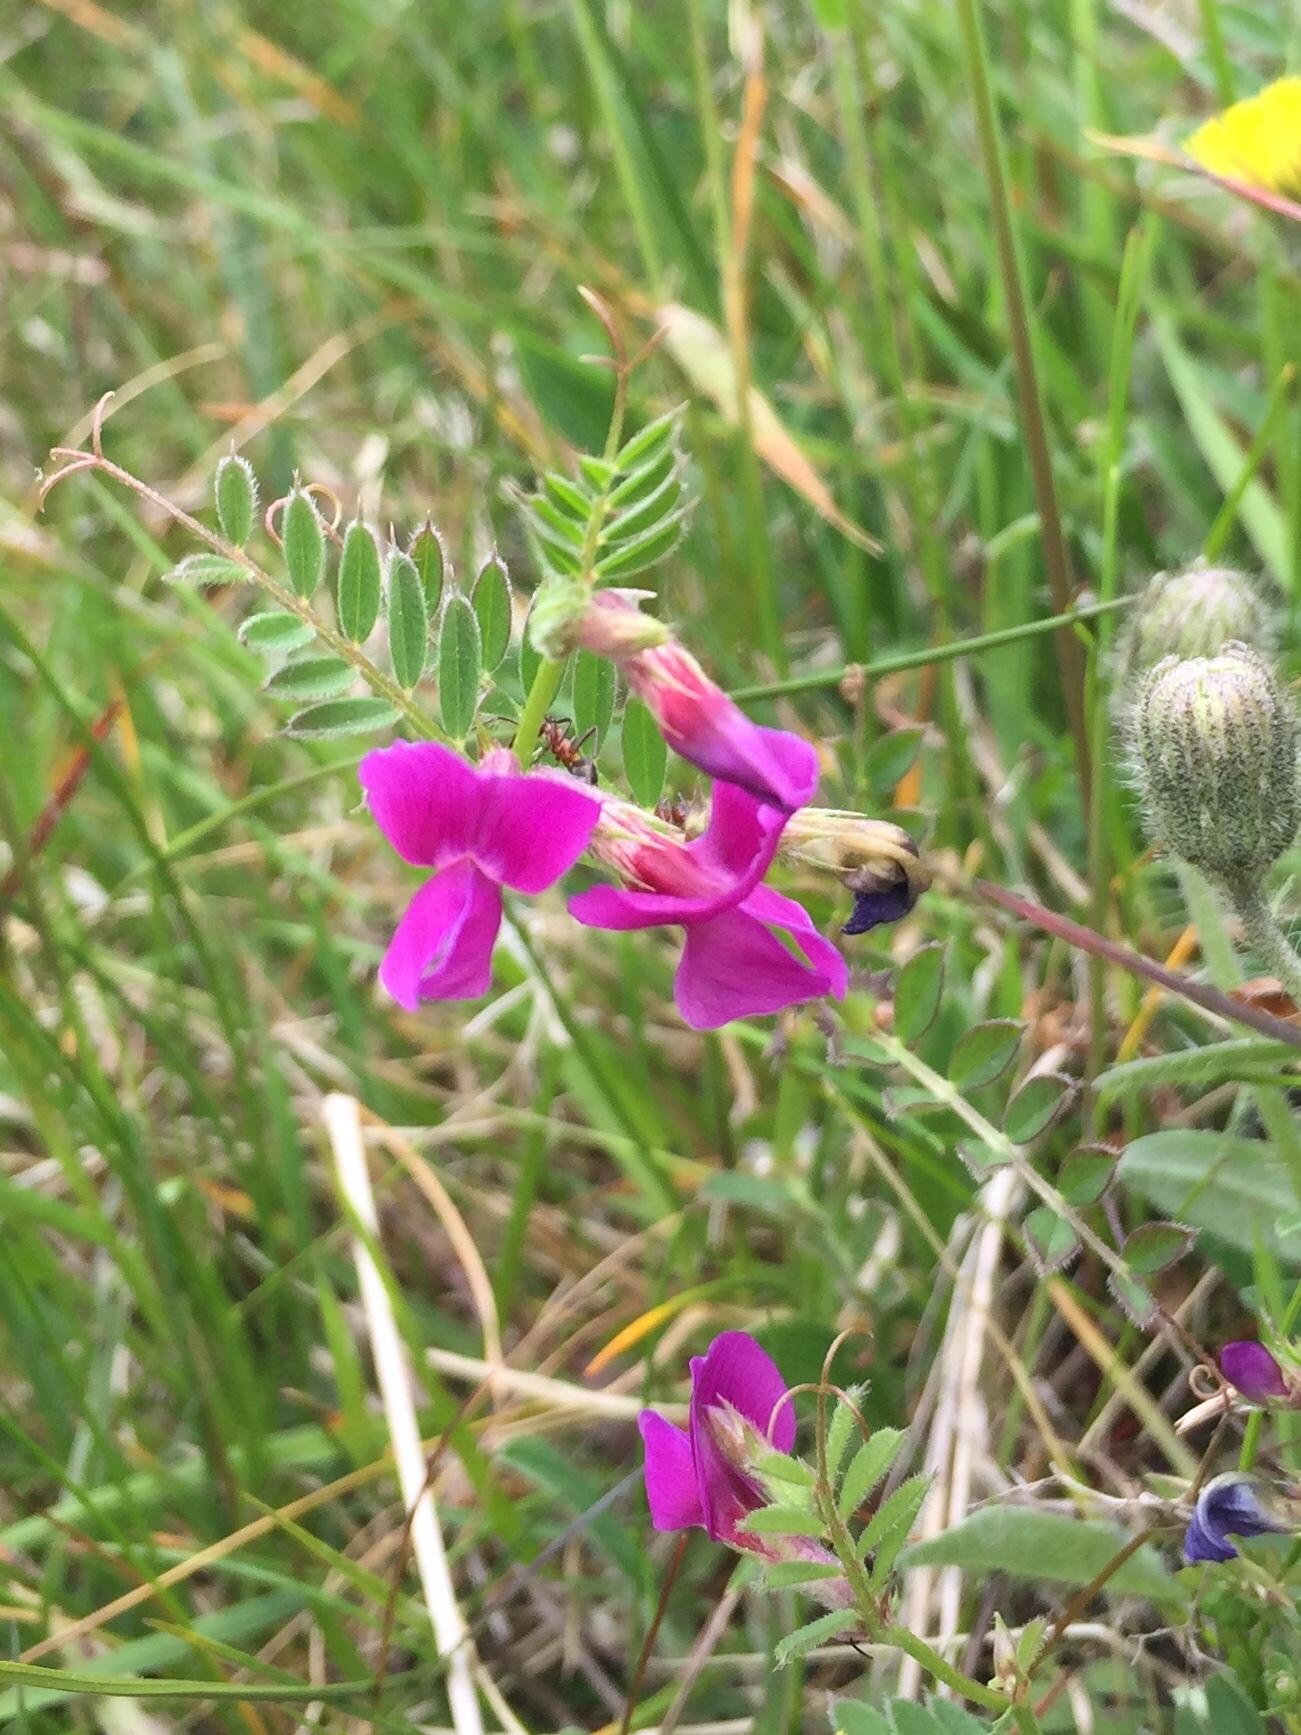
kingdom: Plantae
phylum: Tracheophyta
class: Magnoliopsida
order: Fabales
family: Fabaceae
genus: Vicia
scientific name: Vicia sativa
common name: Garden vetch
